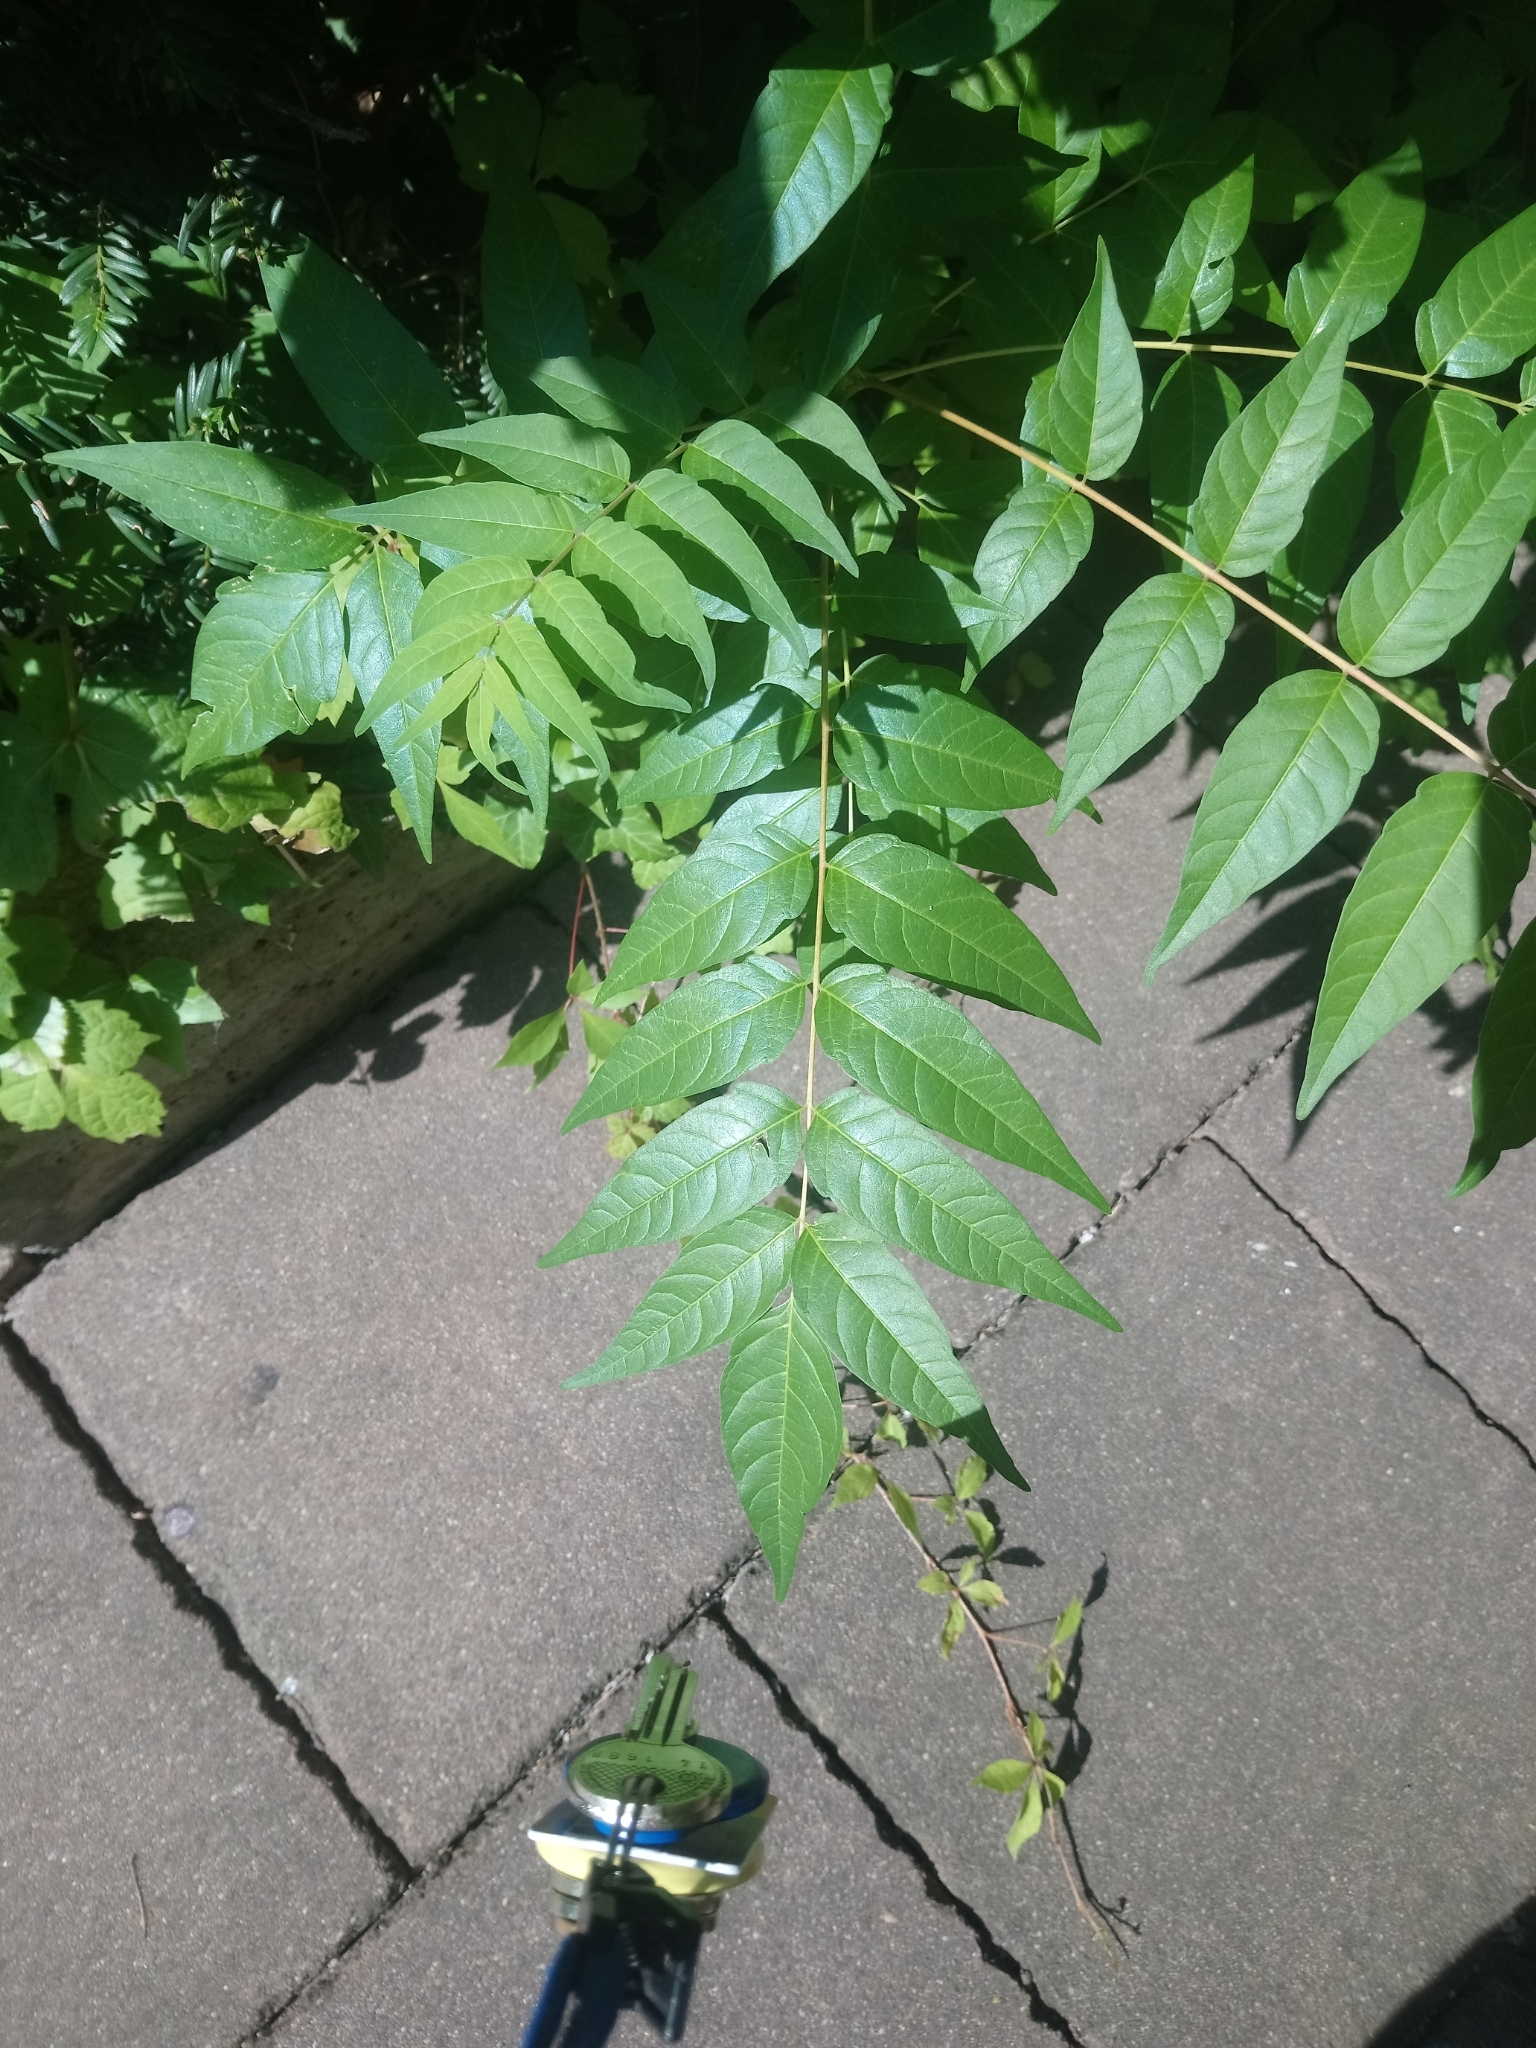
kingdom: Plantae
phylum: Tracheophyta
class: Magnoliopsida
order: Sapindales
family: Simaroubaceae
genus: Ailanthus
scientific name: Ailanthus altissima
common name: Tree-of-heaven
